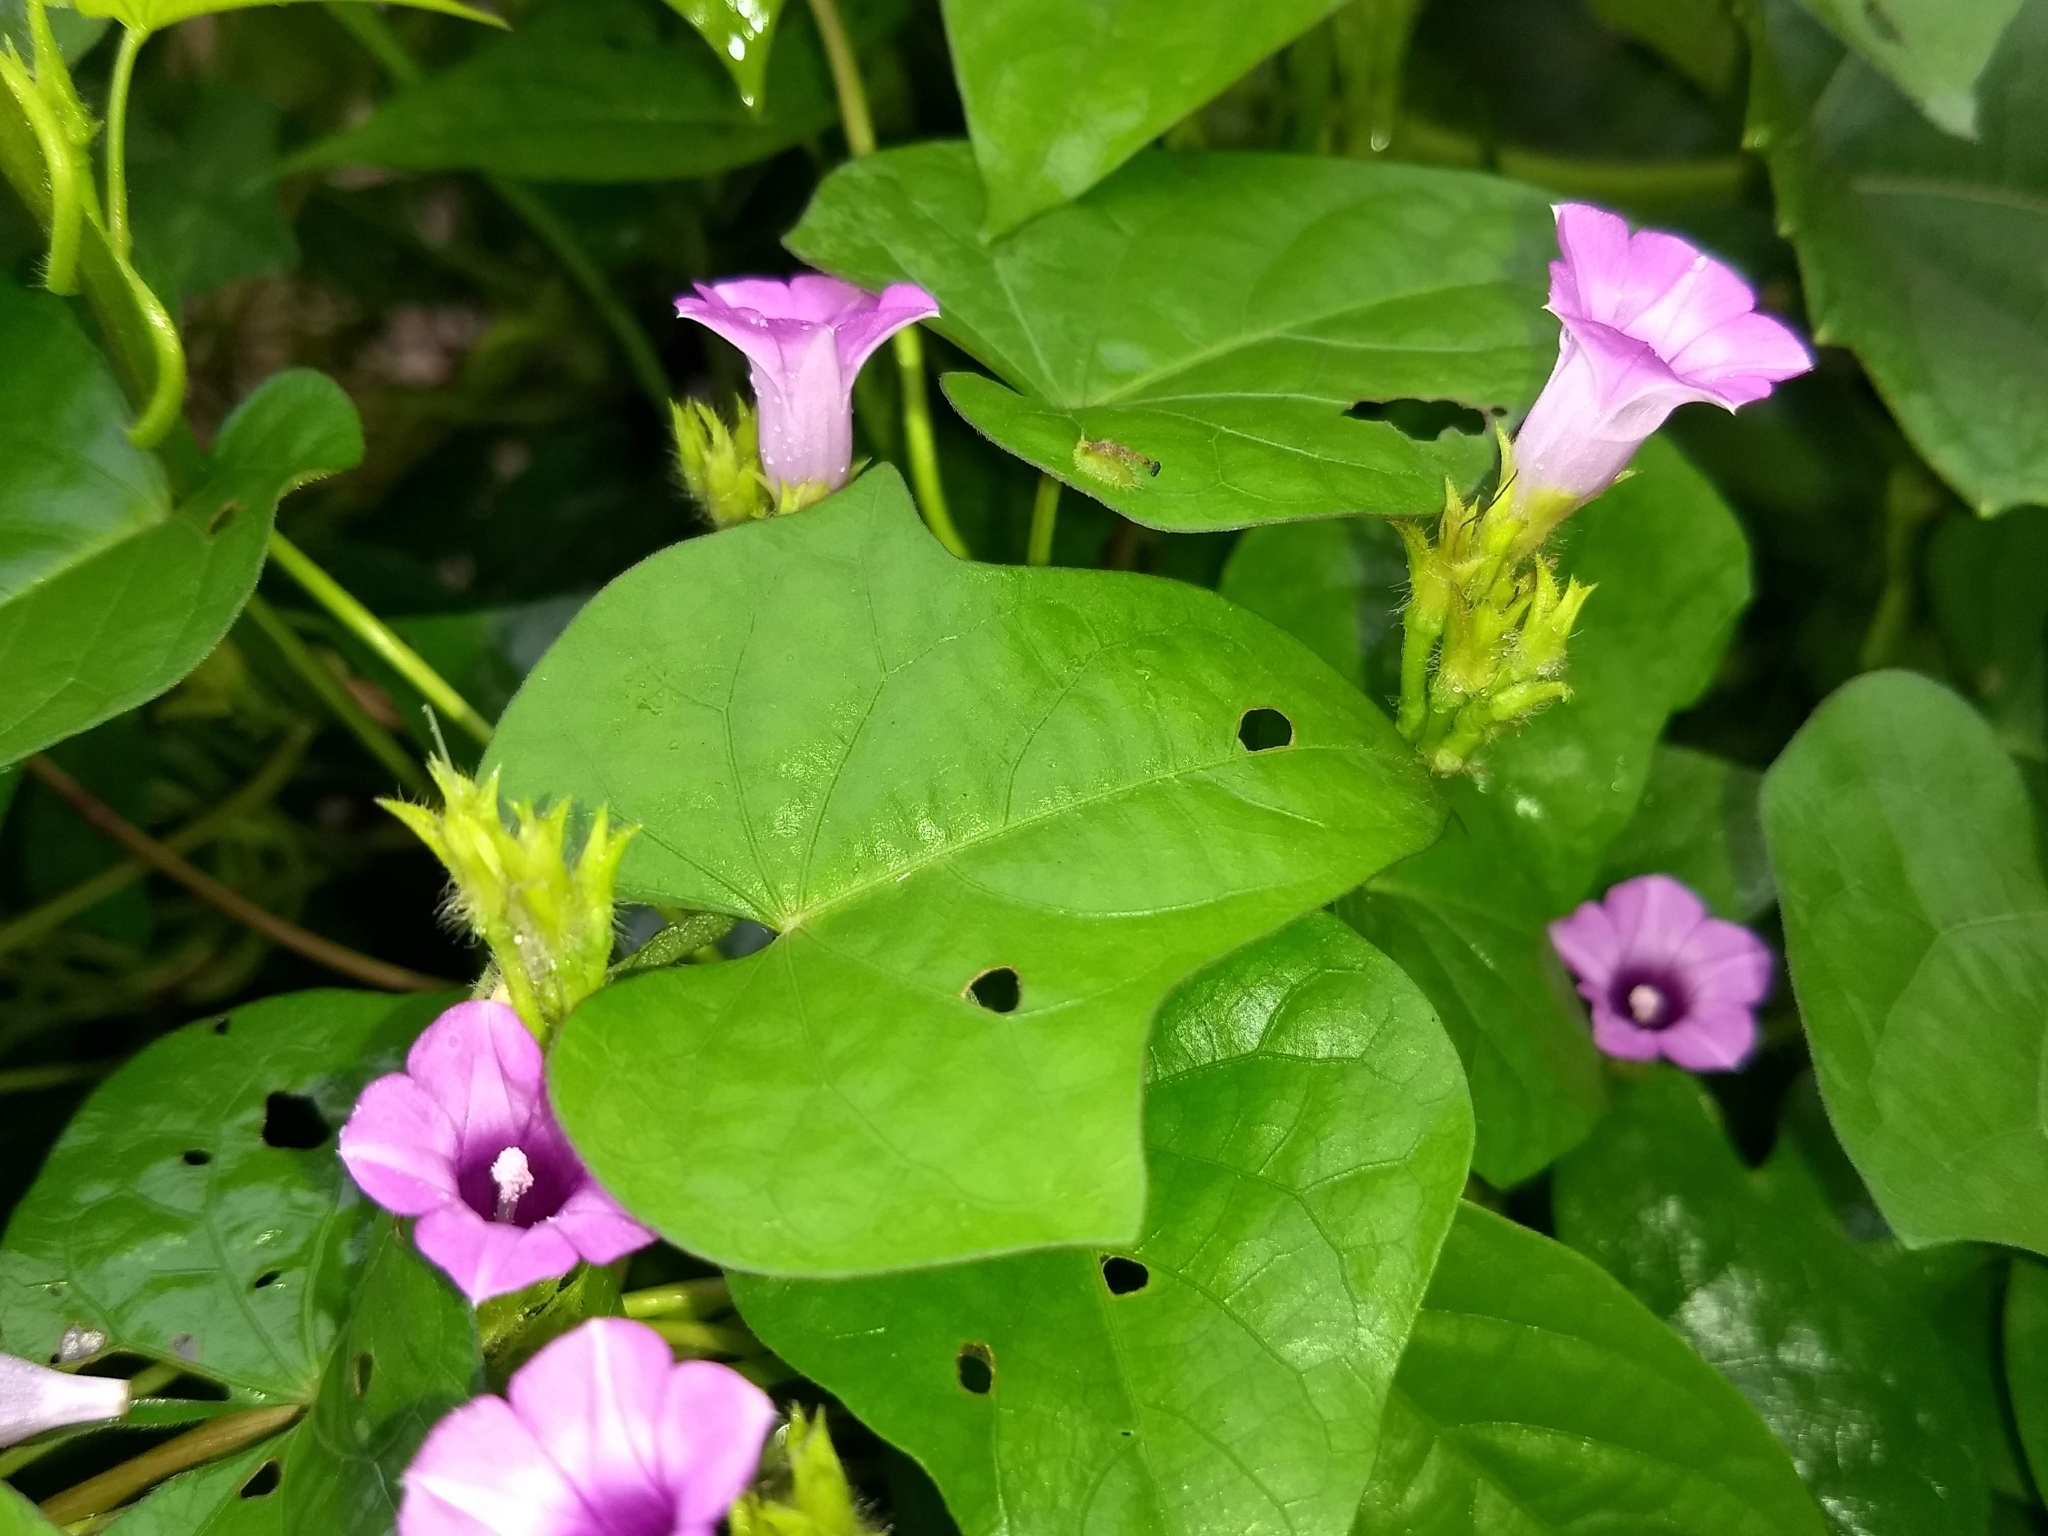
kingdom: Plantae
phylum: Tracheophyta
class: Magnoliopsida
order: Solanales
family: Convolvulaceae
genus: Ipomoea
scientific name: Ipomoea triloba
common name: Little-bell
